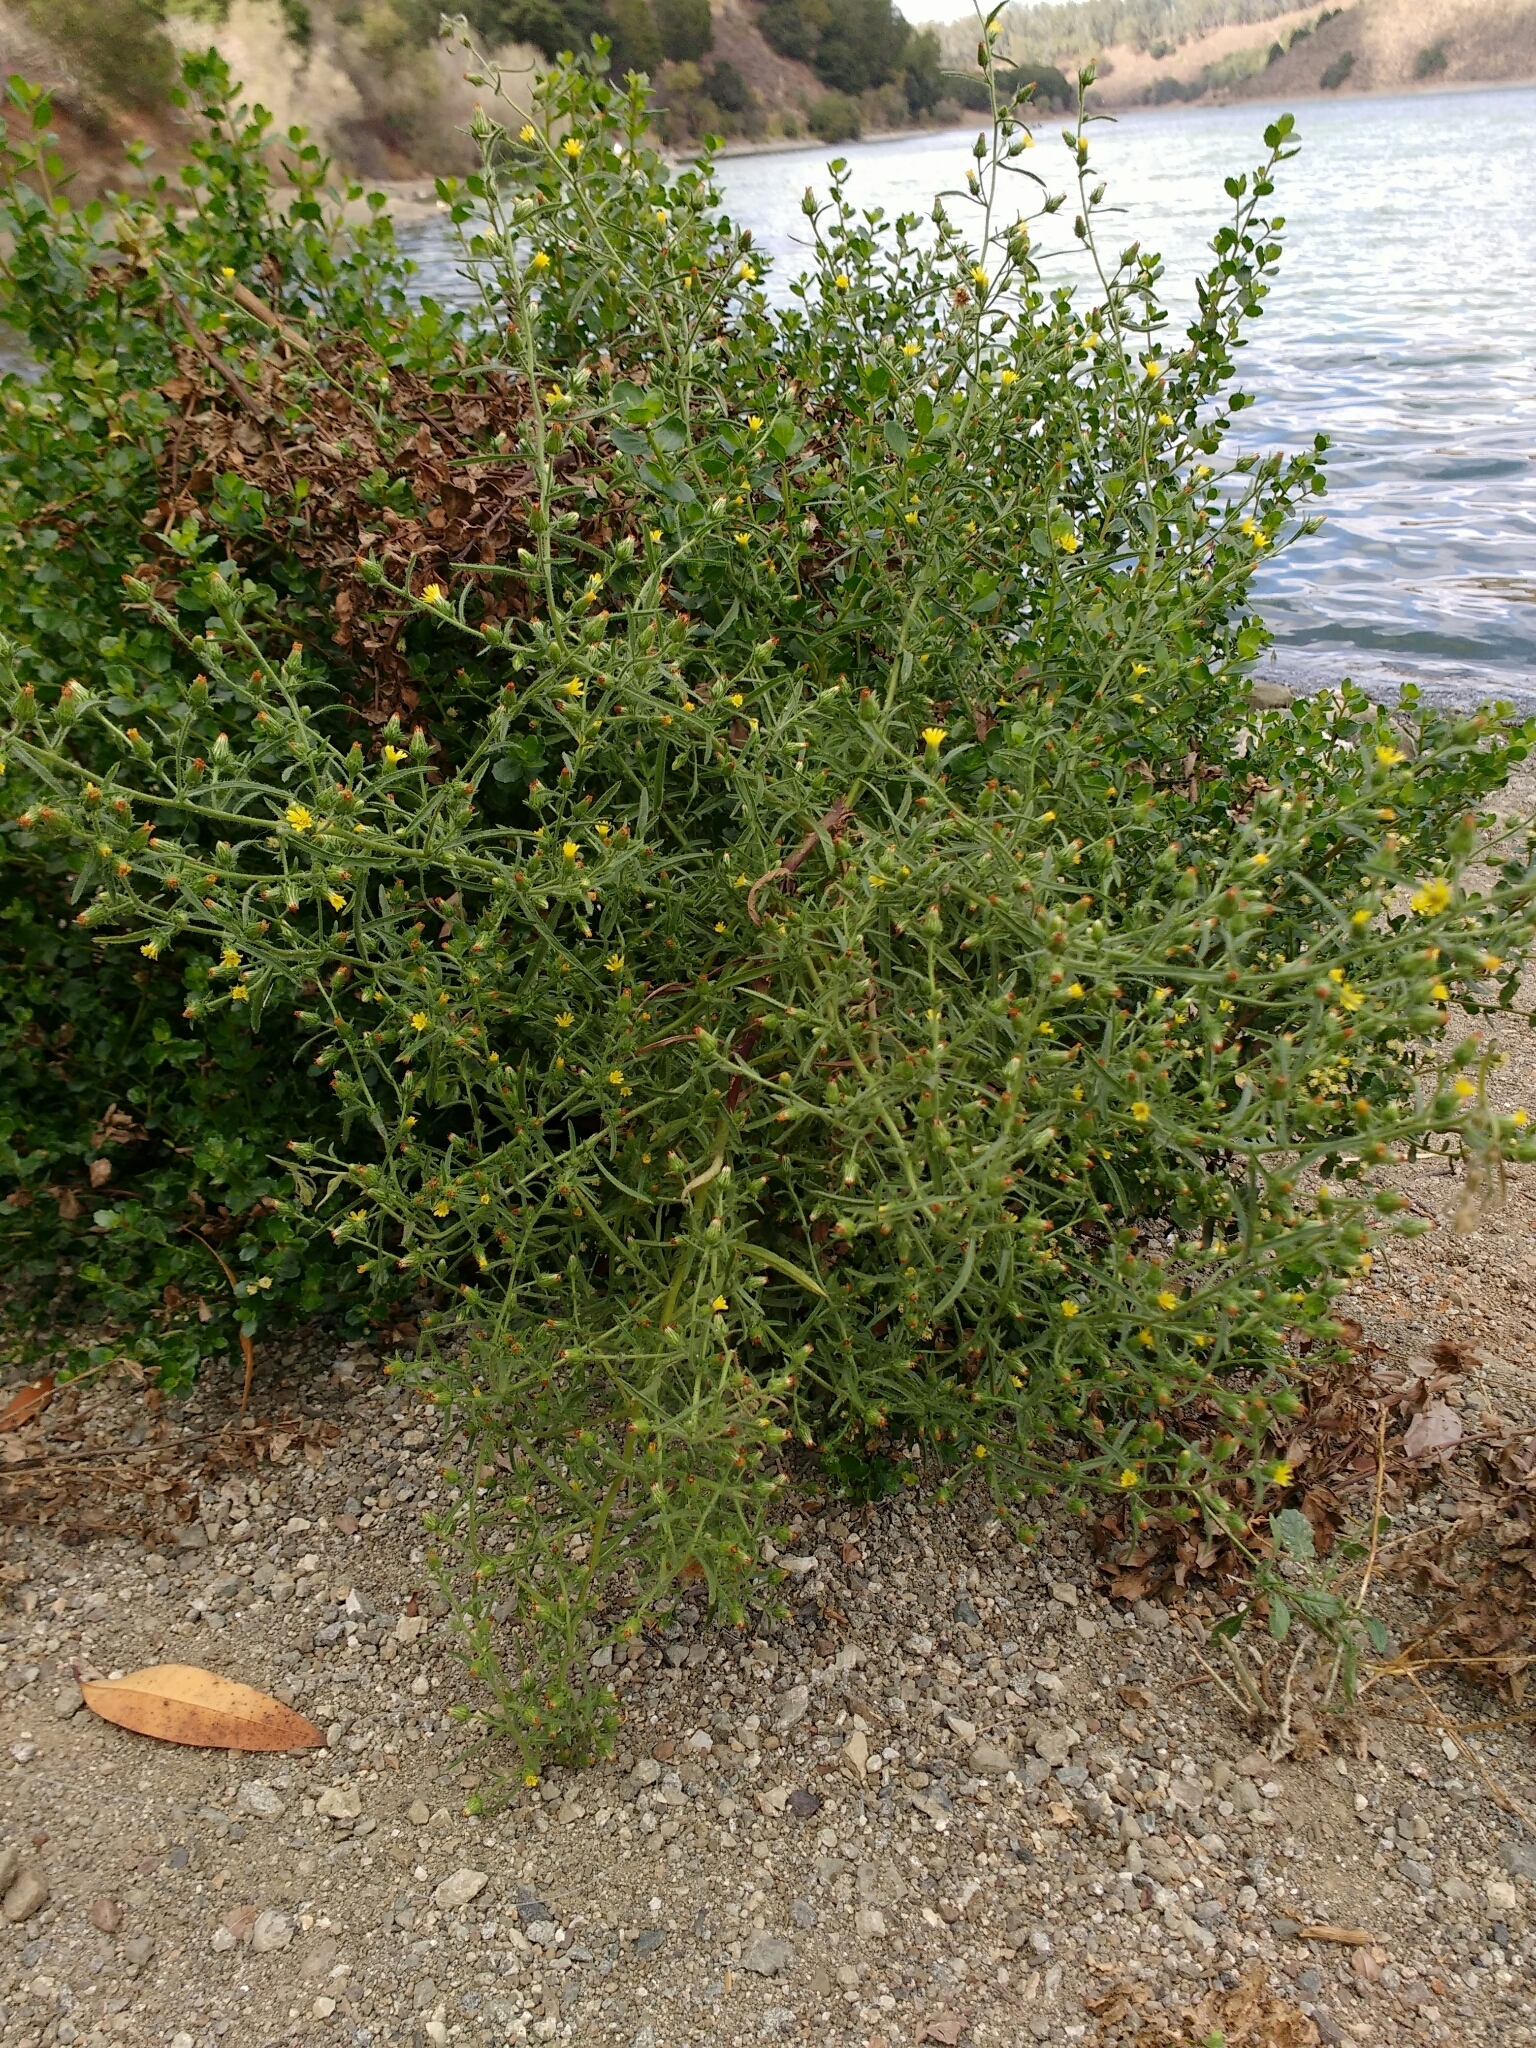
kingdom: Plantae
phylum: Tracheophyta
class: Magnoliopsida
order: Asterales
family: Asteraceae
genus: Dittrichia
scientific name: Dittrichia graveolens
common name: Stinking fleabane
